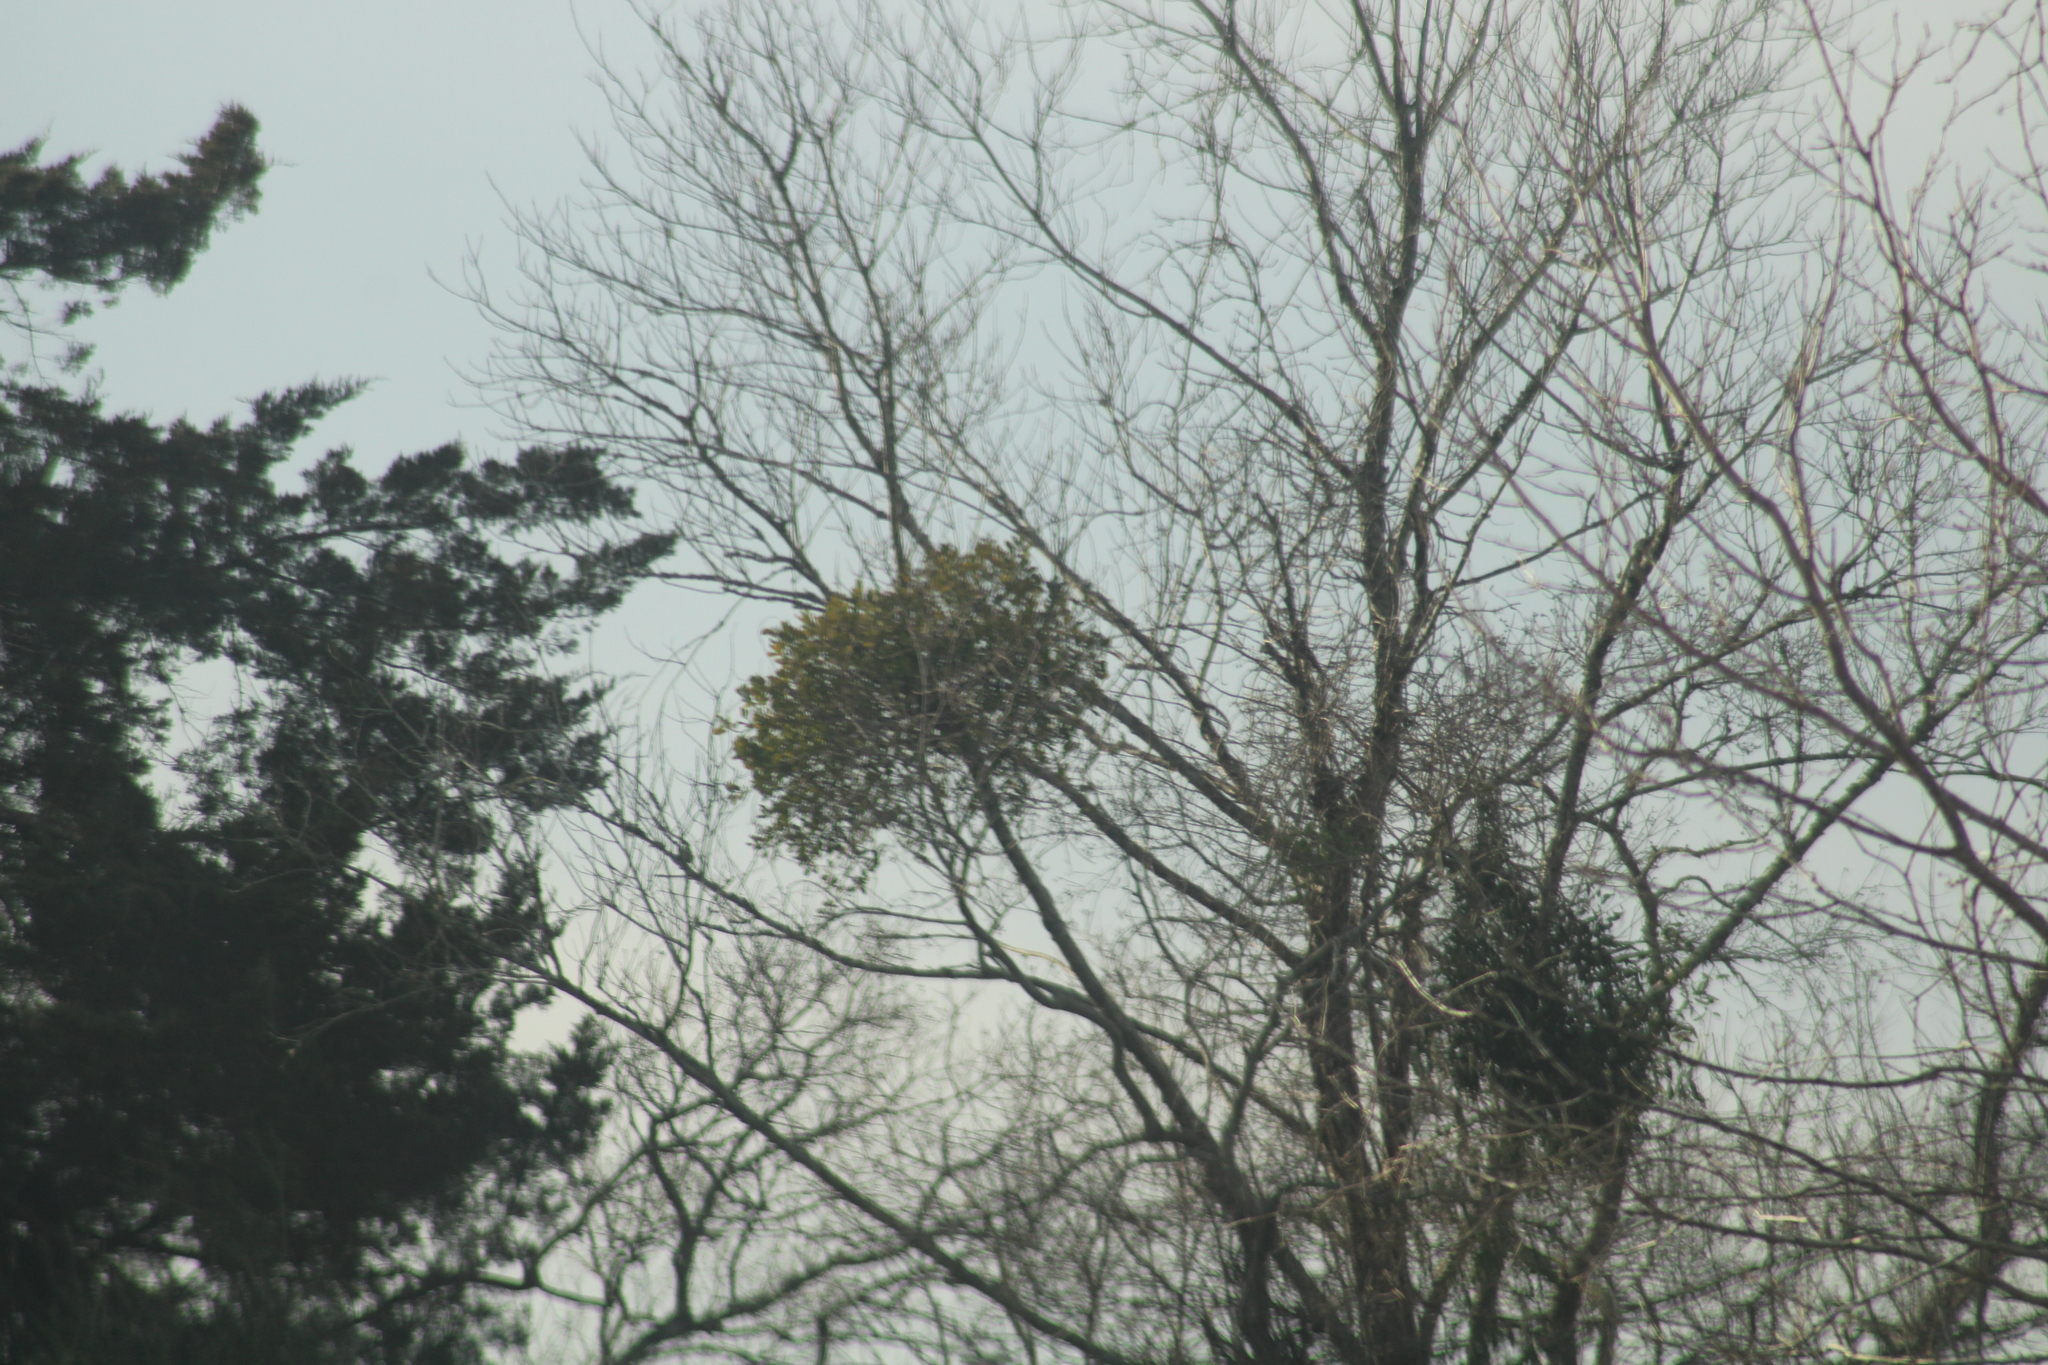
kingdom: Plantae
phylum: Tracheophyta
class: Magnoliopsida
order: Santalales
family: Viscaceae
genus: Phoradendron
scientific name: Phoradendron leucarpum
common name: Pacific mistletoe
